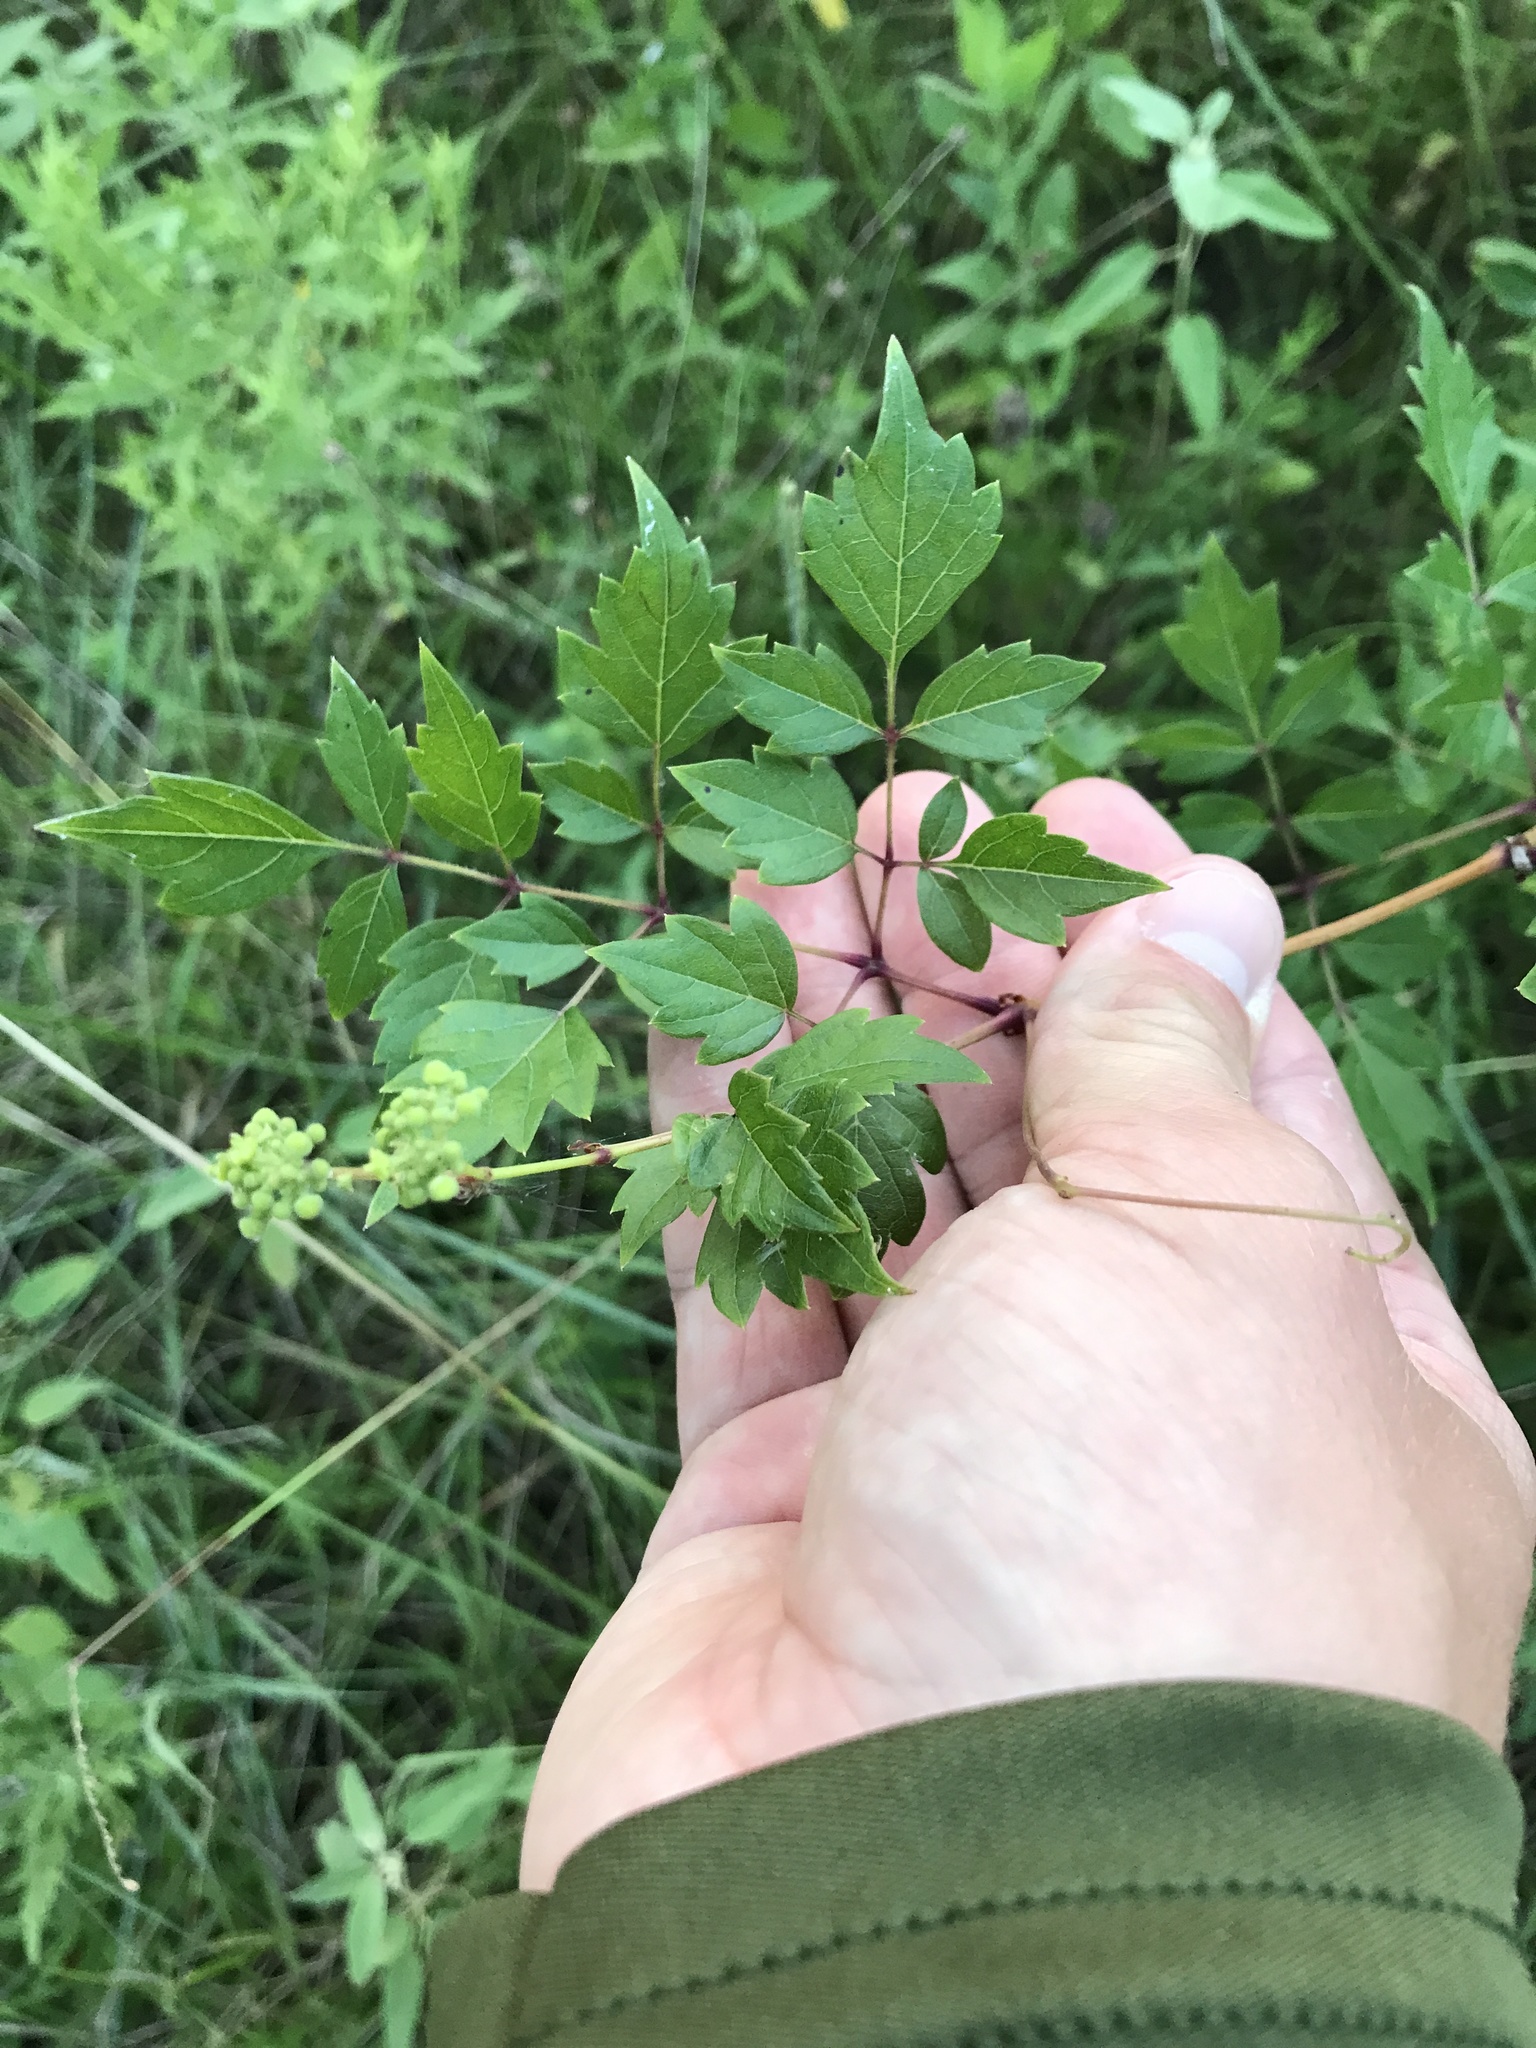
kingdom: Plantae
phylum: Tracheophyta
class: Magnoliopsida
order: Vitales
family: Vitaceae
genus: Nekemias
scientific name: Nekemias arborea
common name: Peppervine
